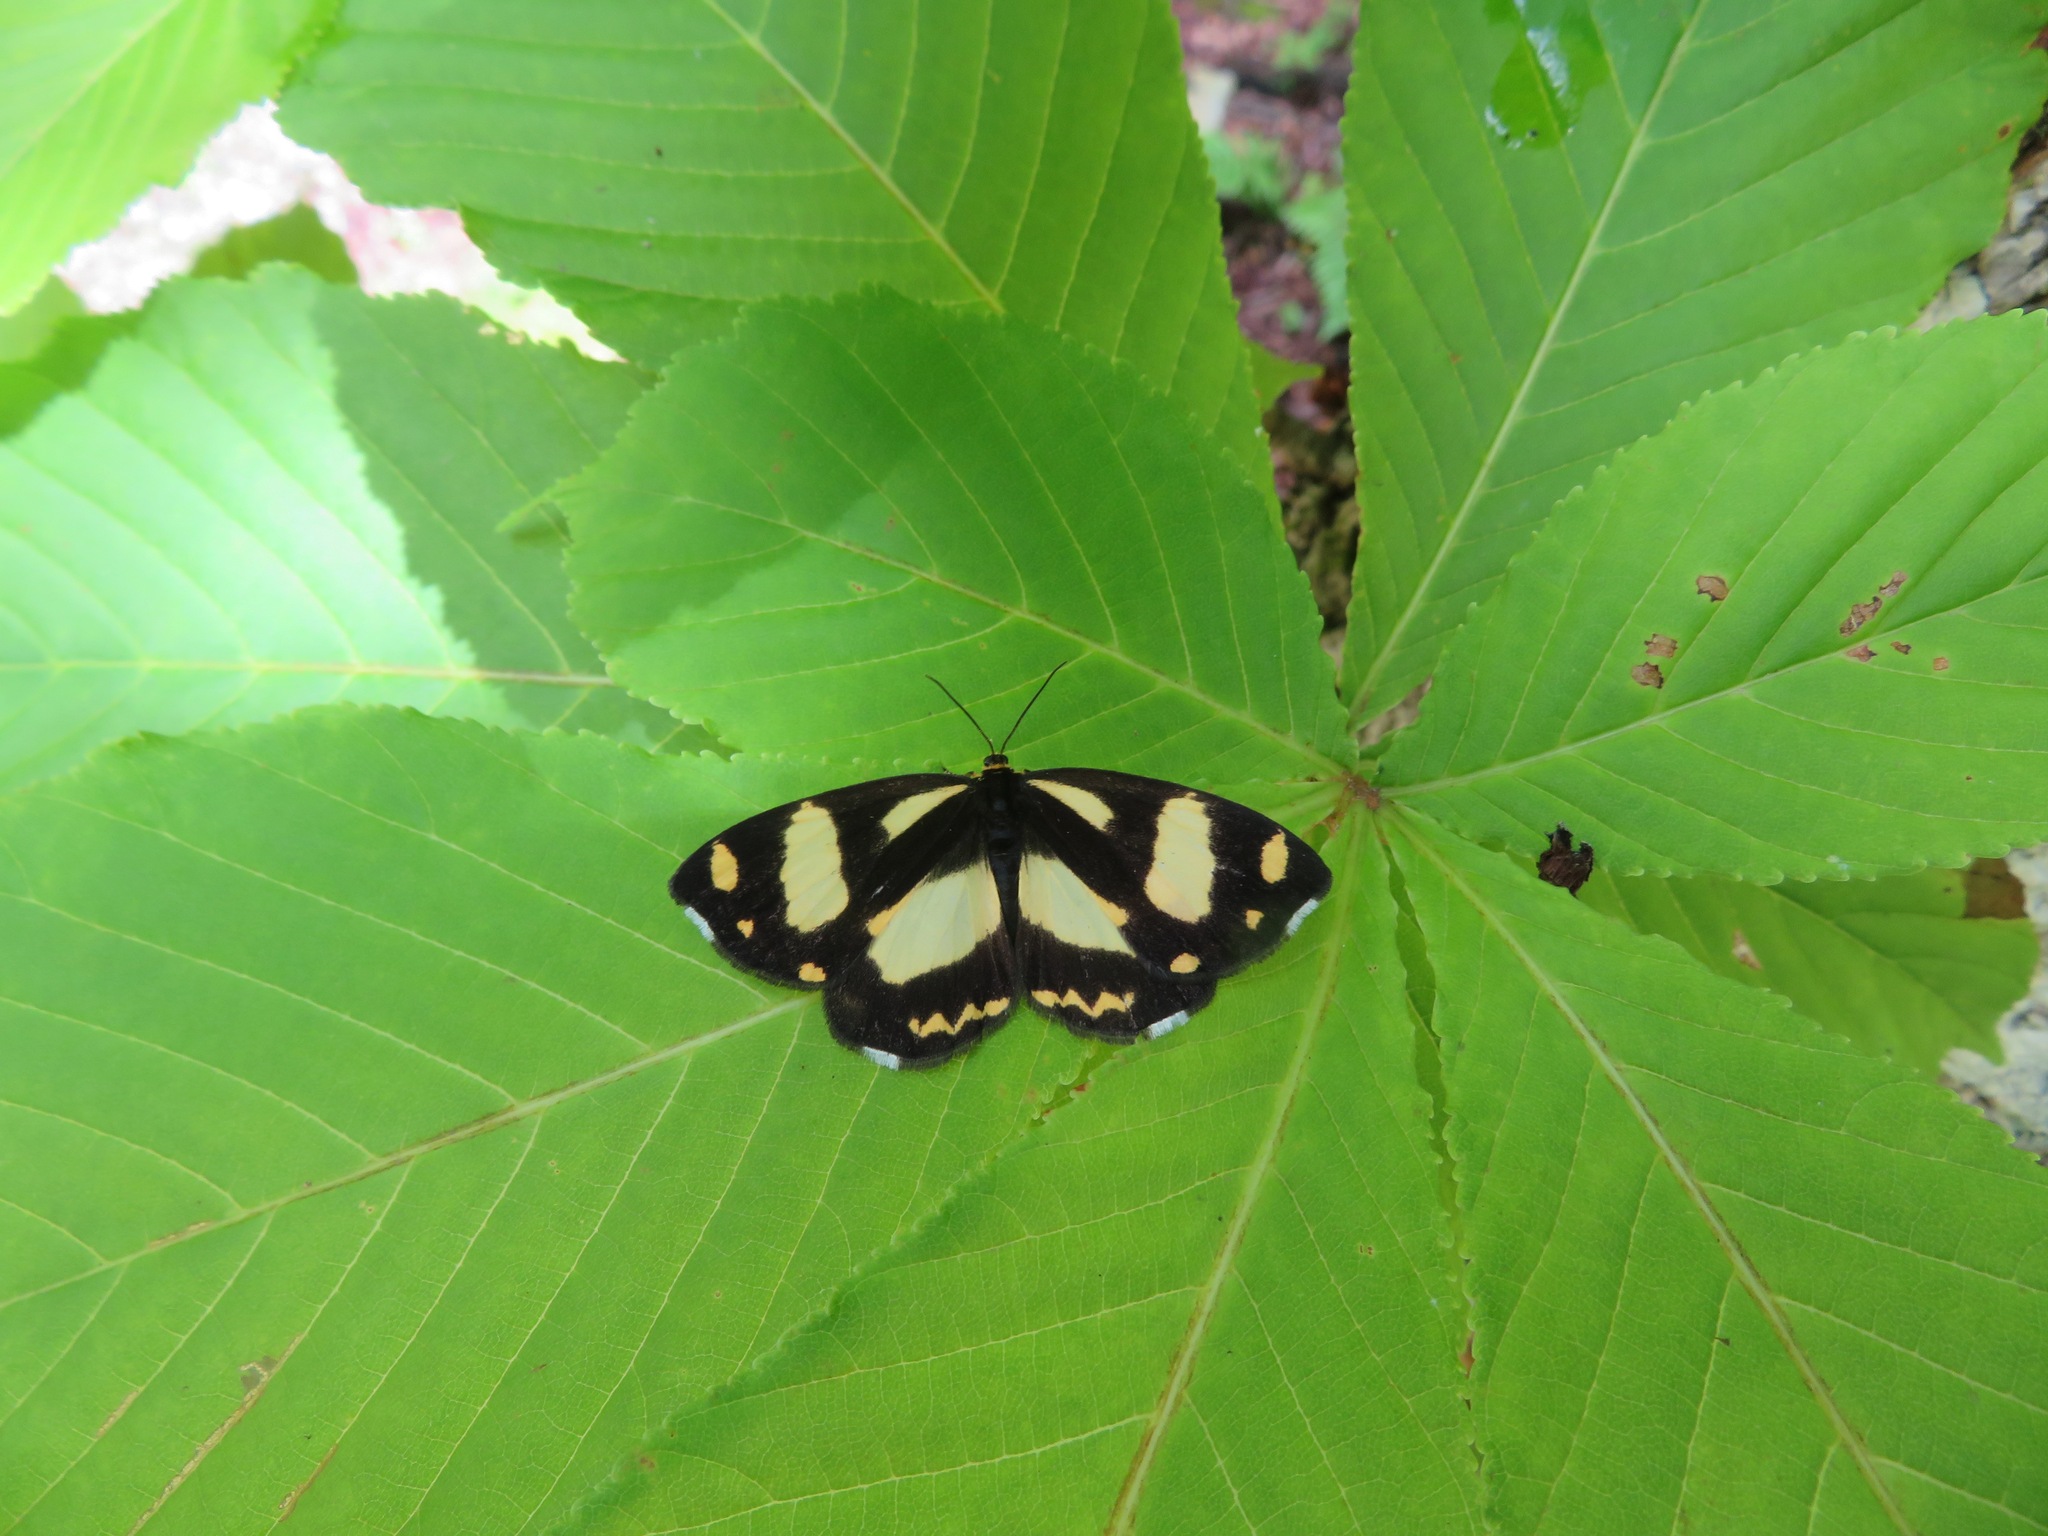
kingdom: Animalia
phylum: Arthropoda
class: Insecta
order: Lepidoptera
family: Epicopeiidae
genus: Psychostrophia
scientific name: Psychostrophia melanargia
